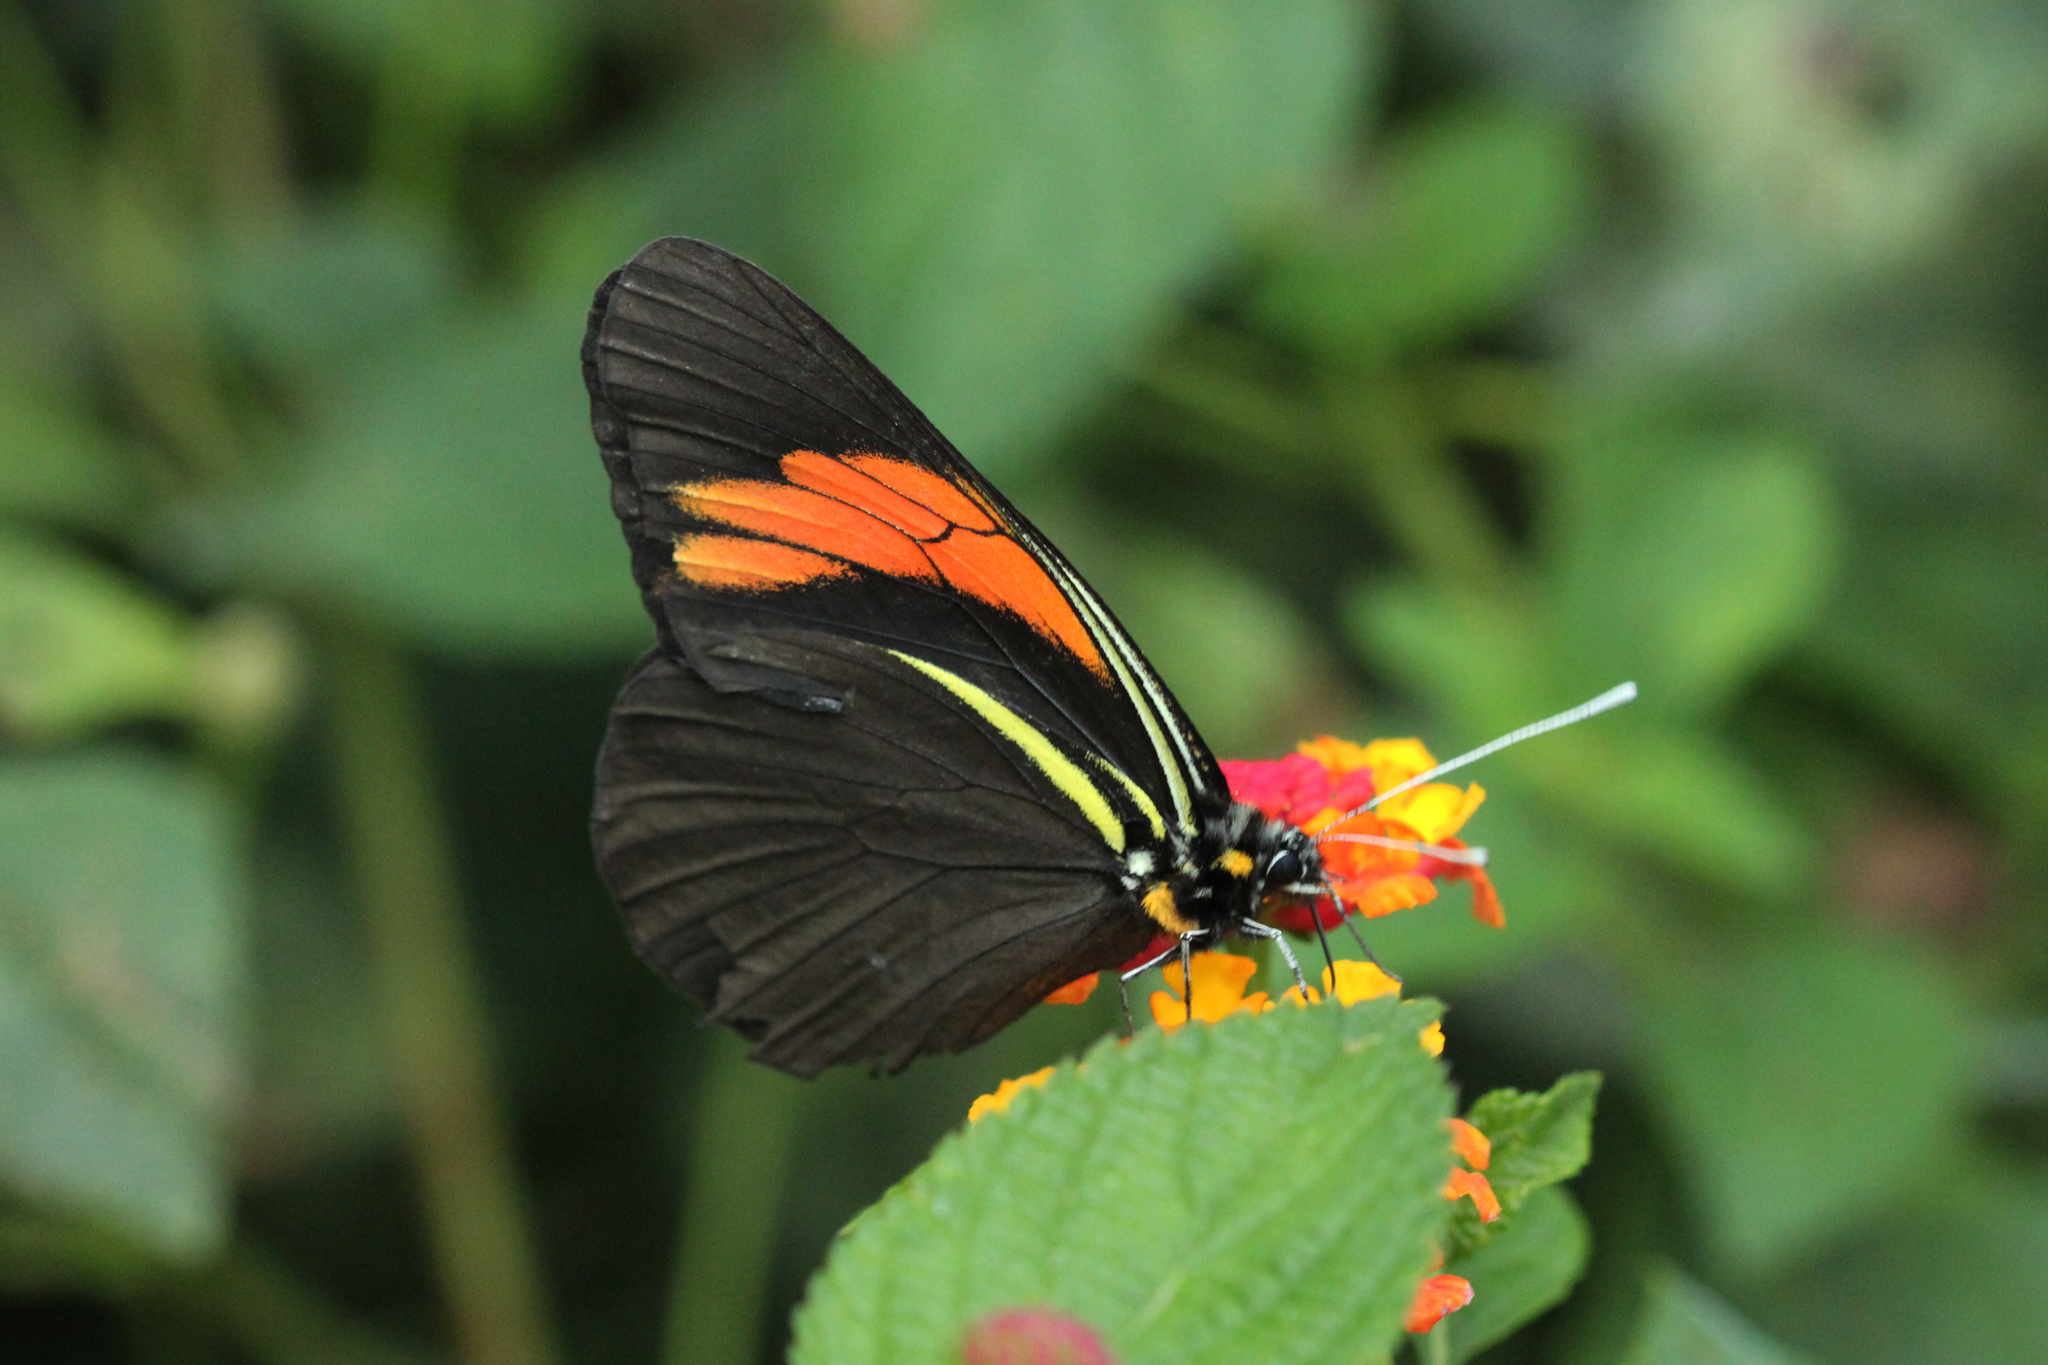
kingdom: Animalia
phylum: Arthropoda
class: Insecta
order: Lepidoptera
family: Pieridae
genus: Pereute
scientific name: Pereute charops
